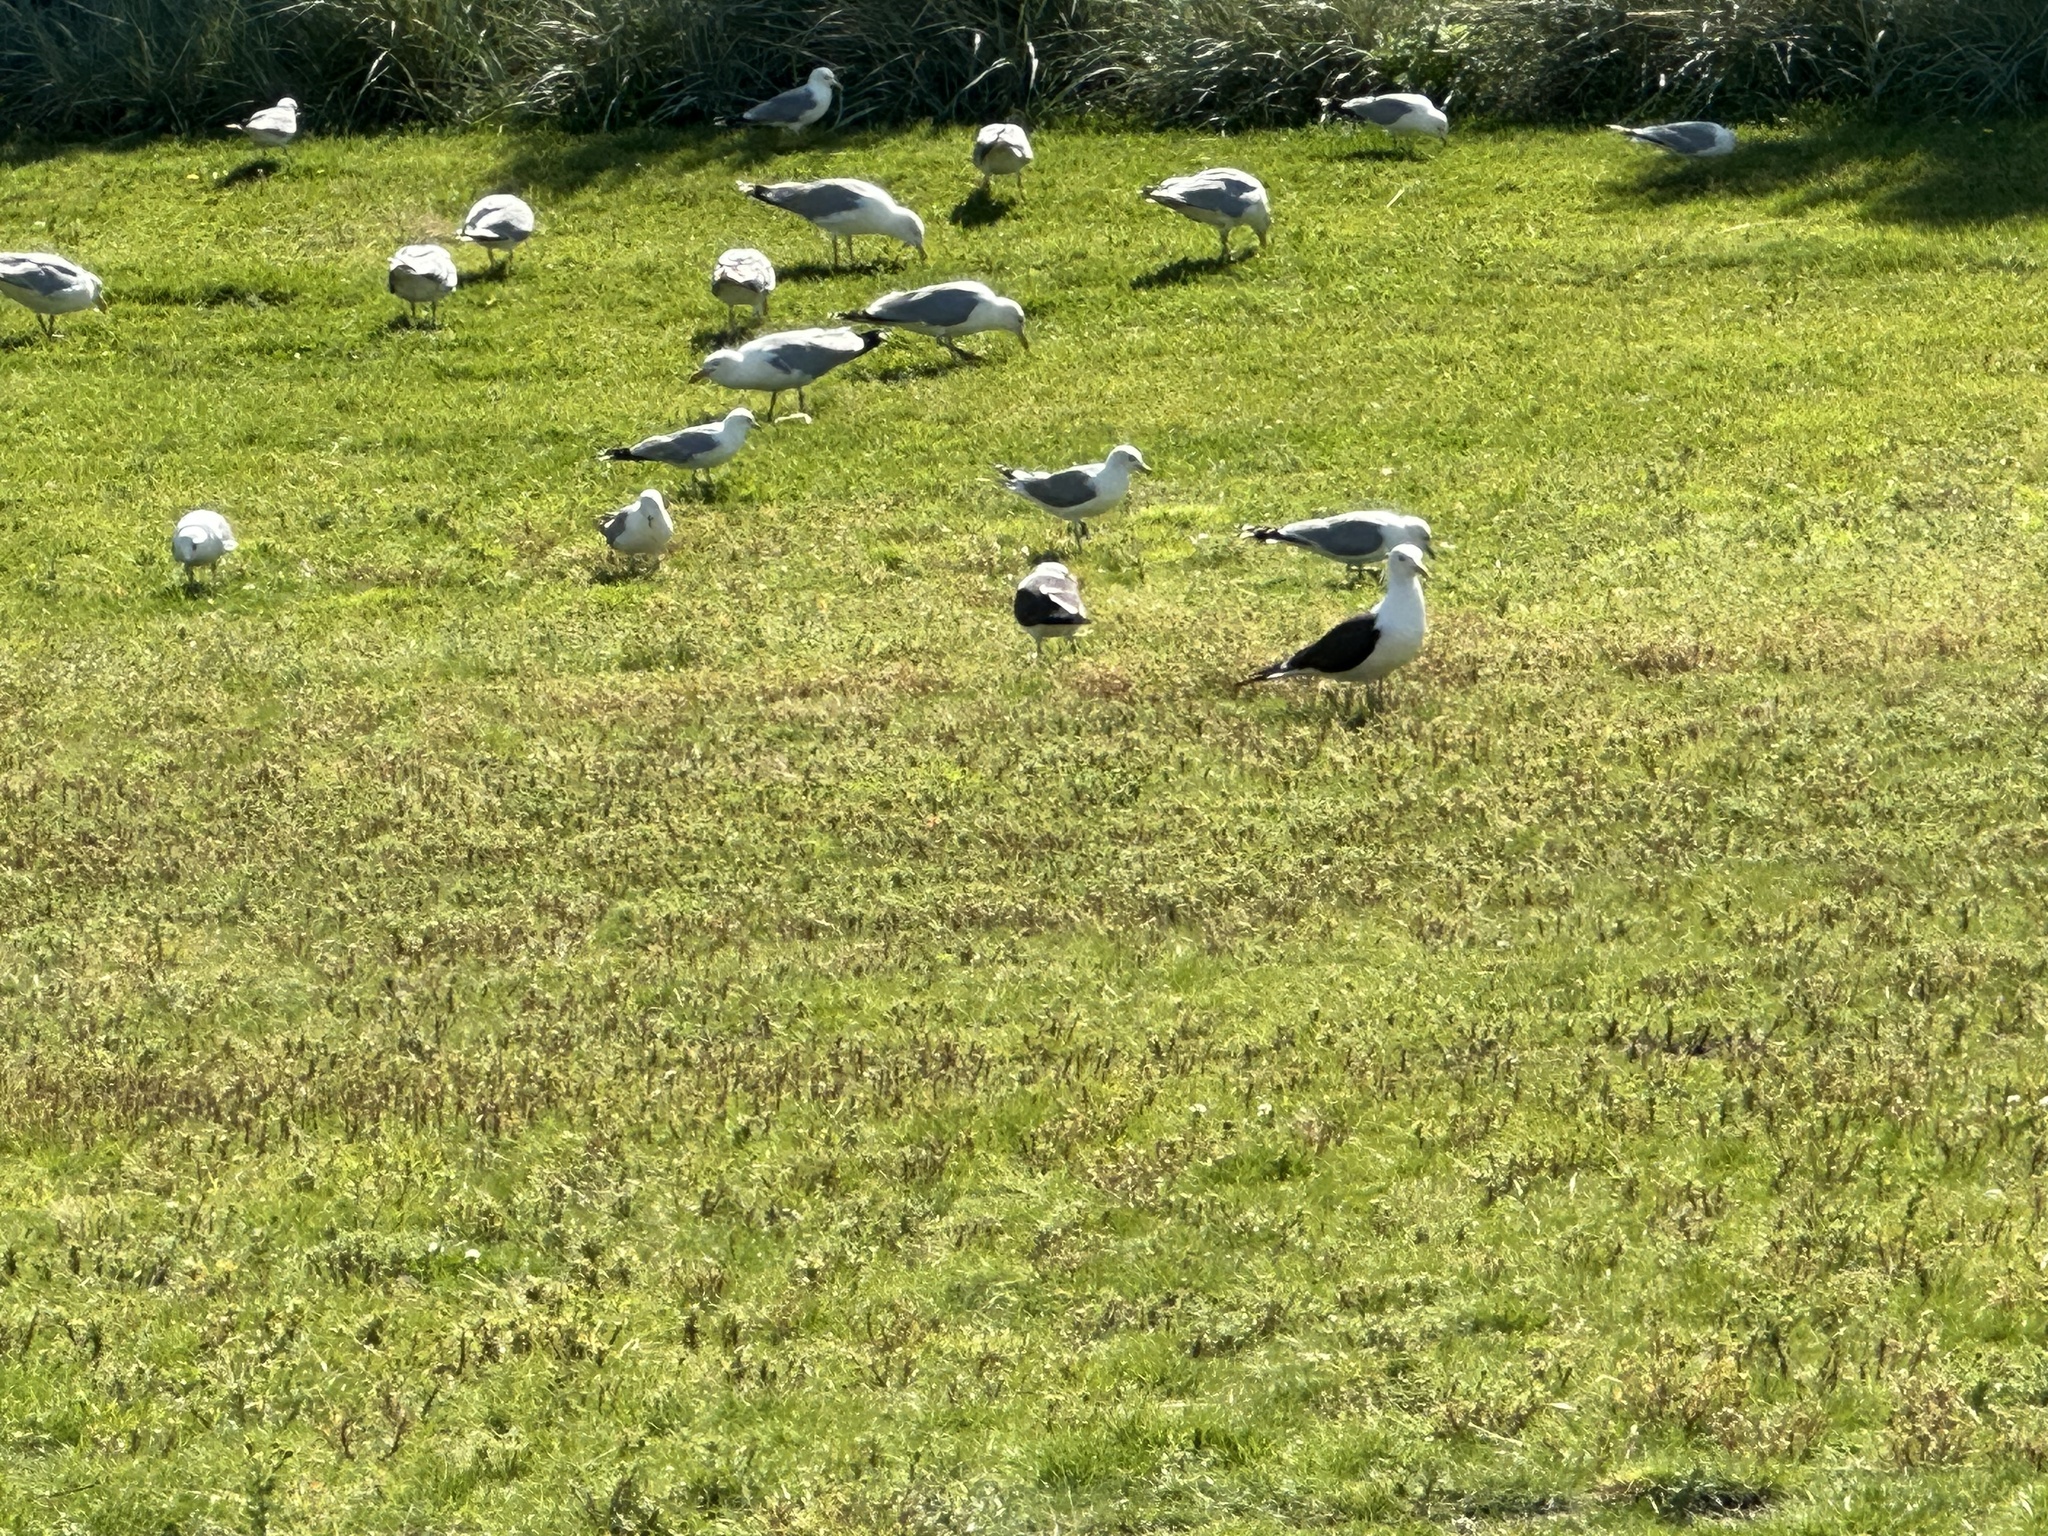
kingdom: Animalia
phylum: Chordata
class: Aves
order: Charadriiformes
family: Laridae
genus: Chroicocephalus
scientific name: Chroicocephalus ridibundus
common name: Black-headed gull
